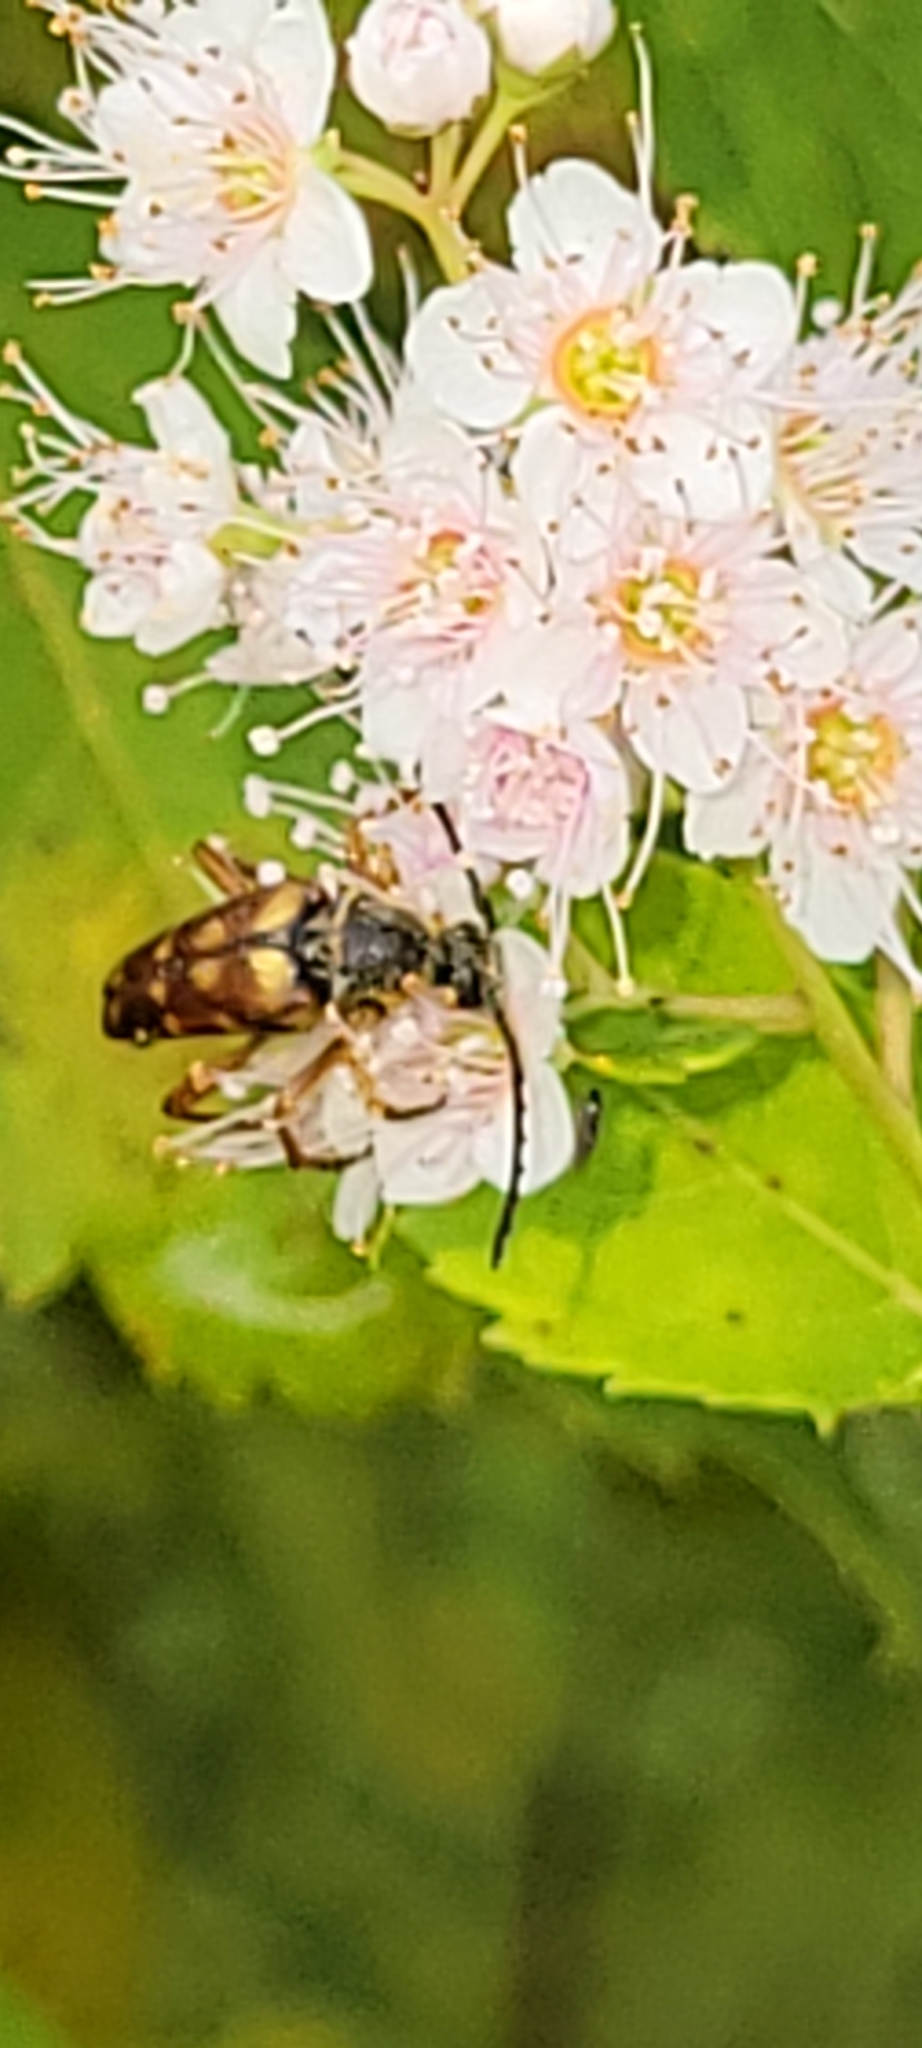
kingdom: Animalia
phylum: Arthropoda
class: Insecta
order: Coleoptera
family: Cerambycidae
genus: Typocerus
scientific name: Typocerus velutinus
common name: Banded longhorn beetle
